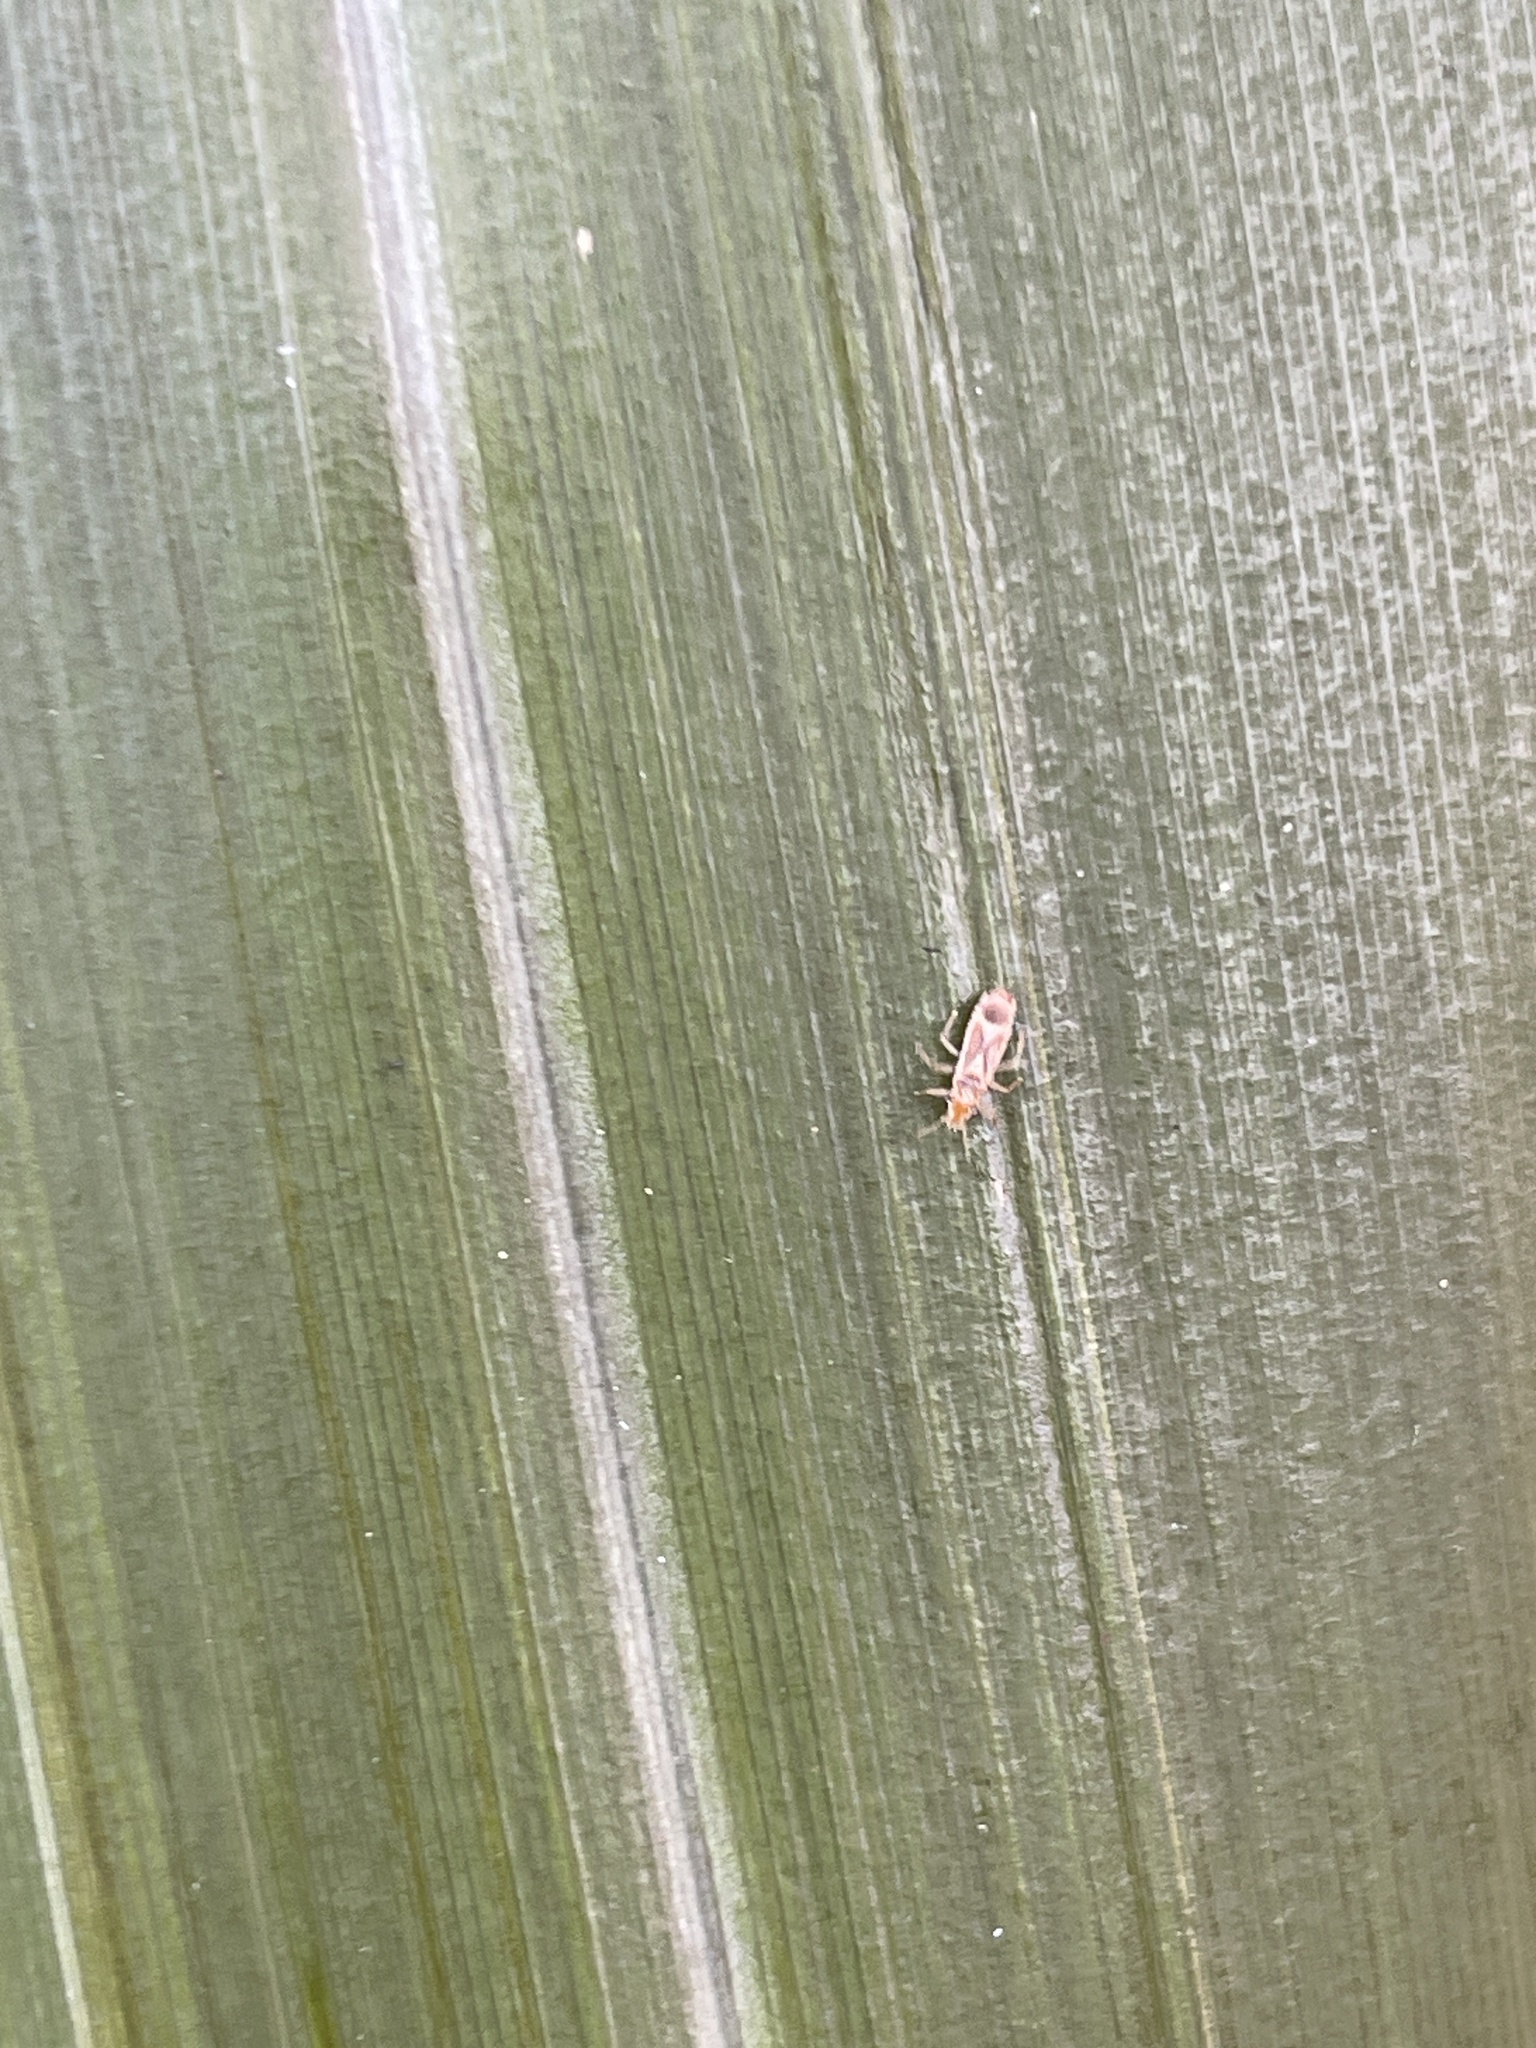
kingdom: Animalia
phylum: Arthropoda
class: Insecta
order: Hemiptera
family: Thaumastocoridae
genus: Thaumastocoris
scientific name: Thaumastocoris peregrinus
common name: Bronze bug
